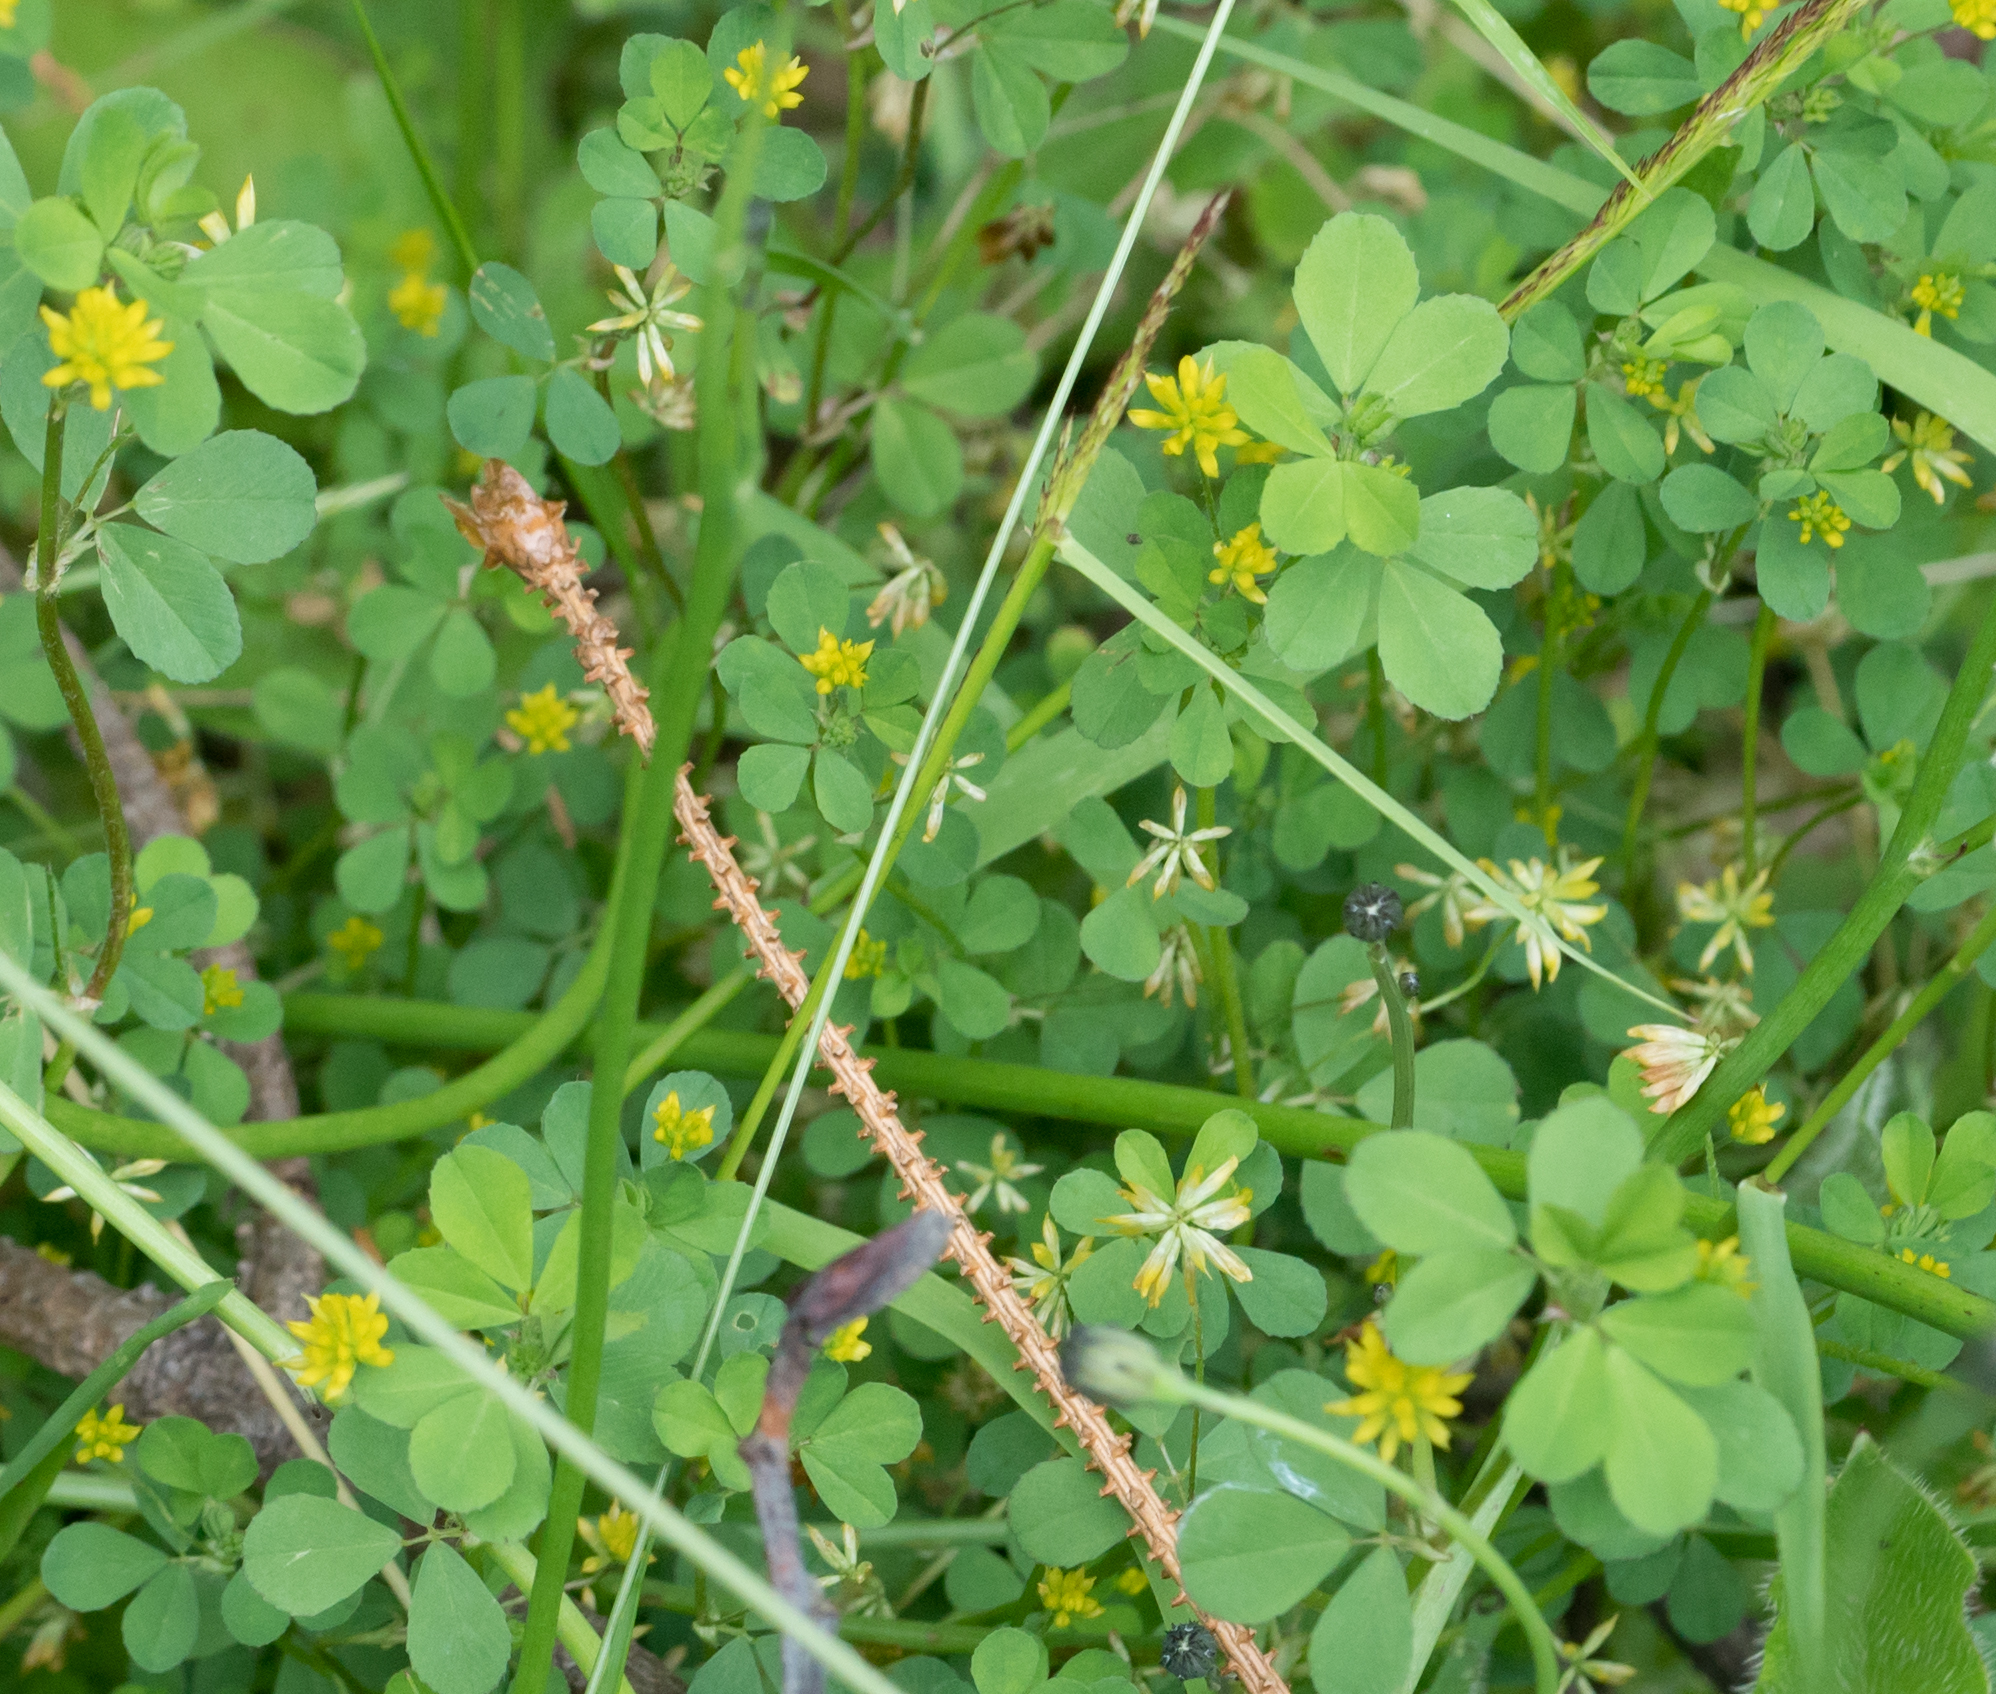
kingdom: Plantae
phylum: Tracheophyta
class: Magnoliopsida
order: Fabales
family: Fabaceae
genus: Trifolium
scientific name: Trifolium dubium
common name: Suckling clover
